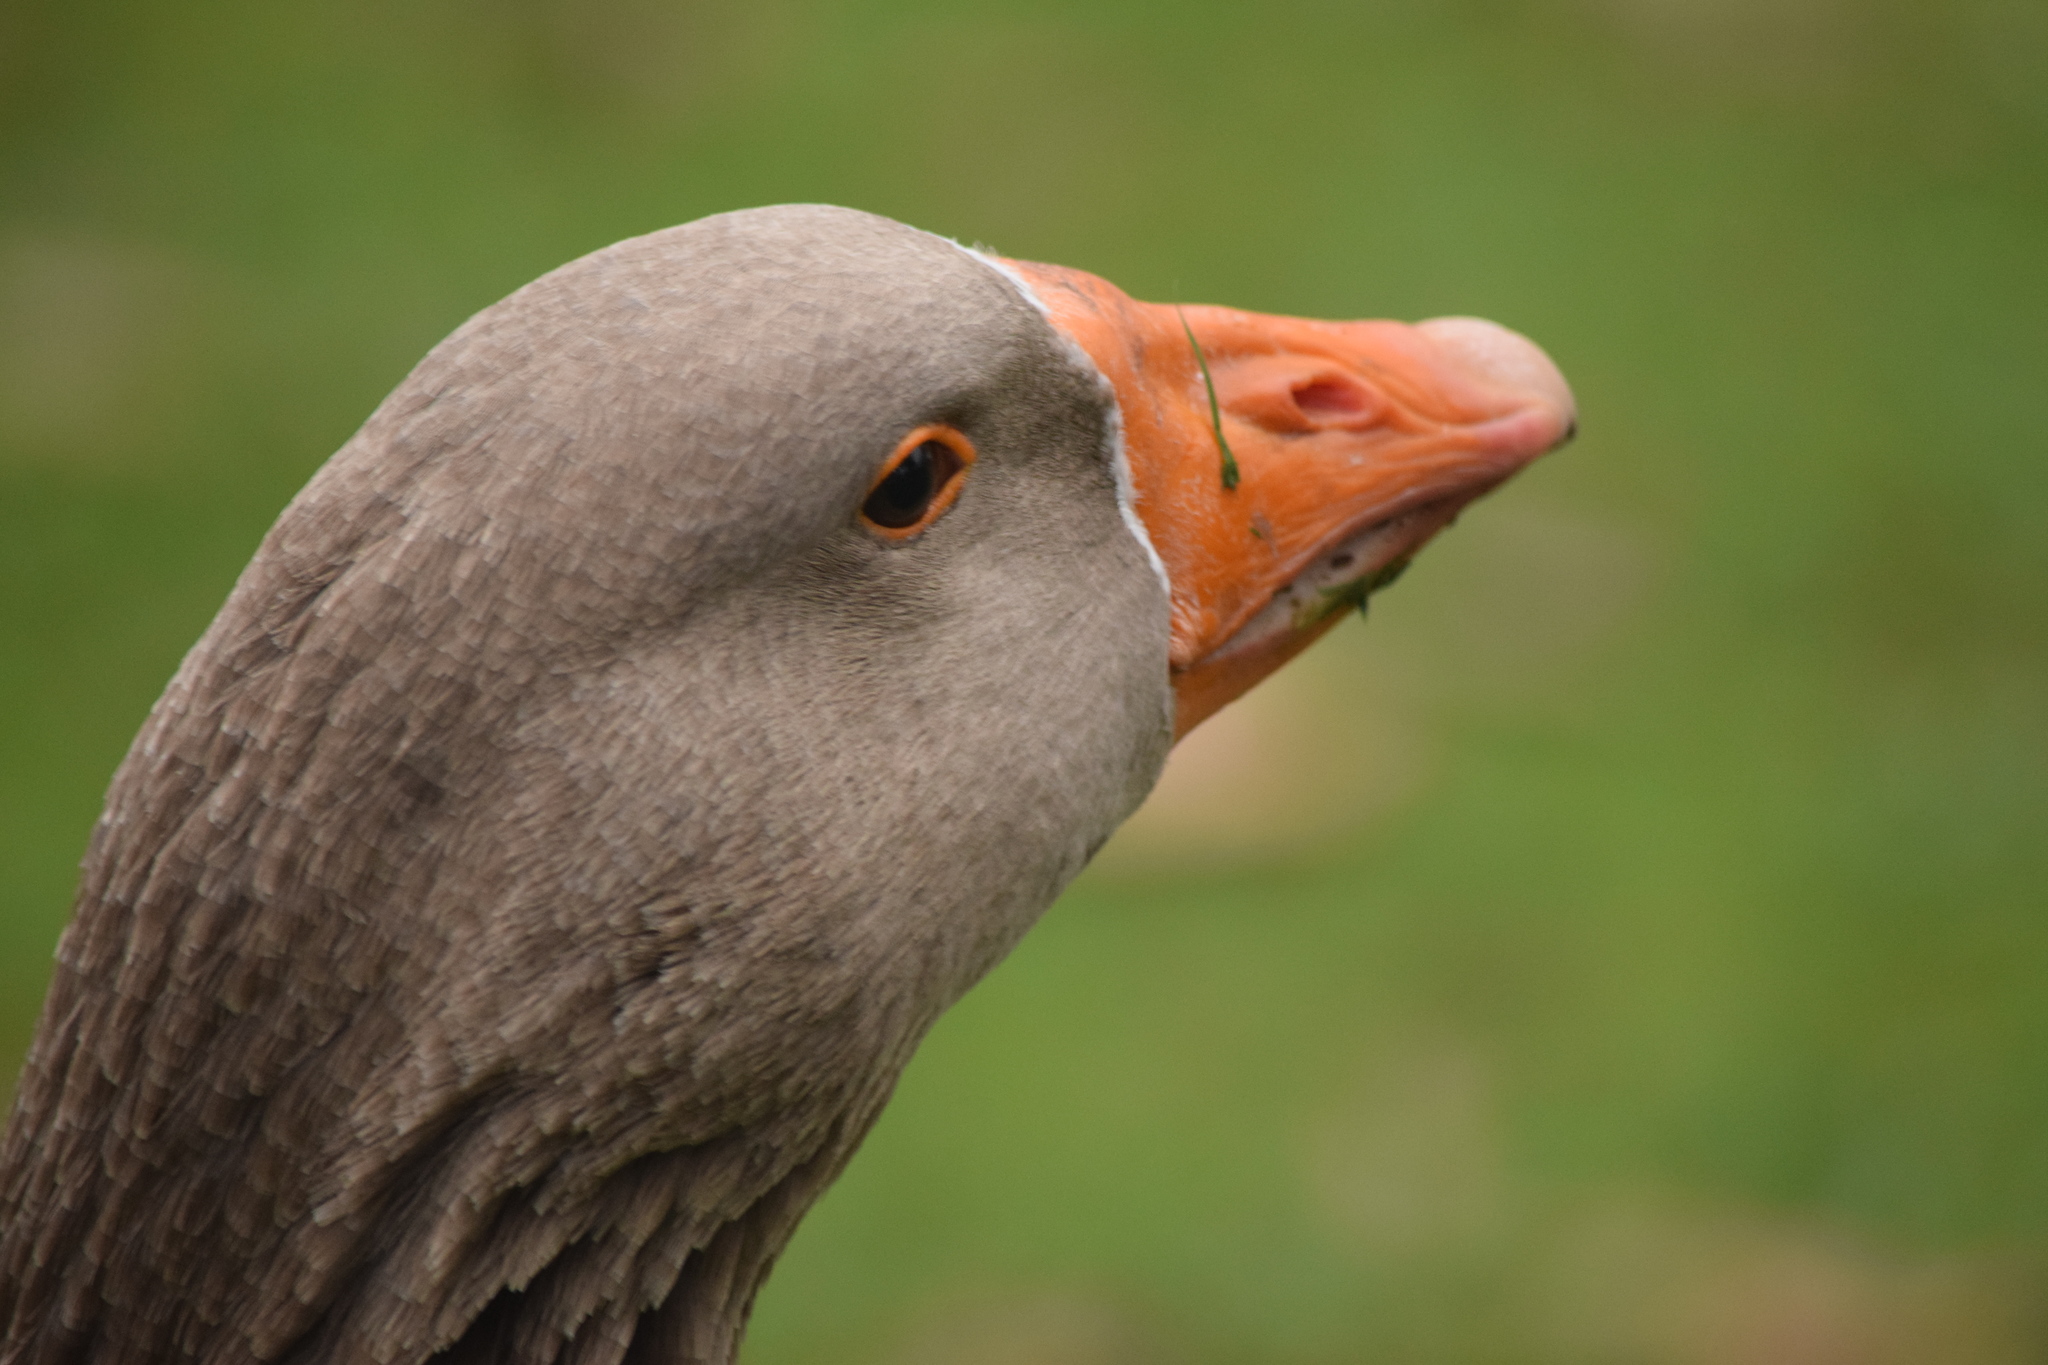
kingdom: Animalia
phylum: Chordata
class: Aves
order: Anseriformes
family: Anatidae
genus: Anser
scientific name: Anser anser
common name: Greylag goose
